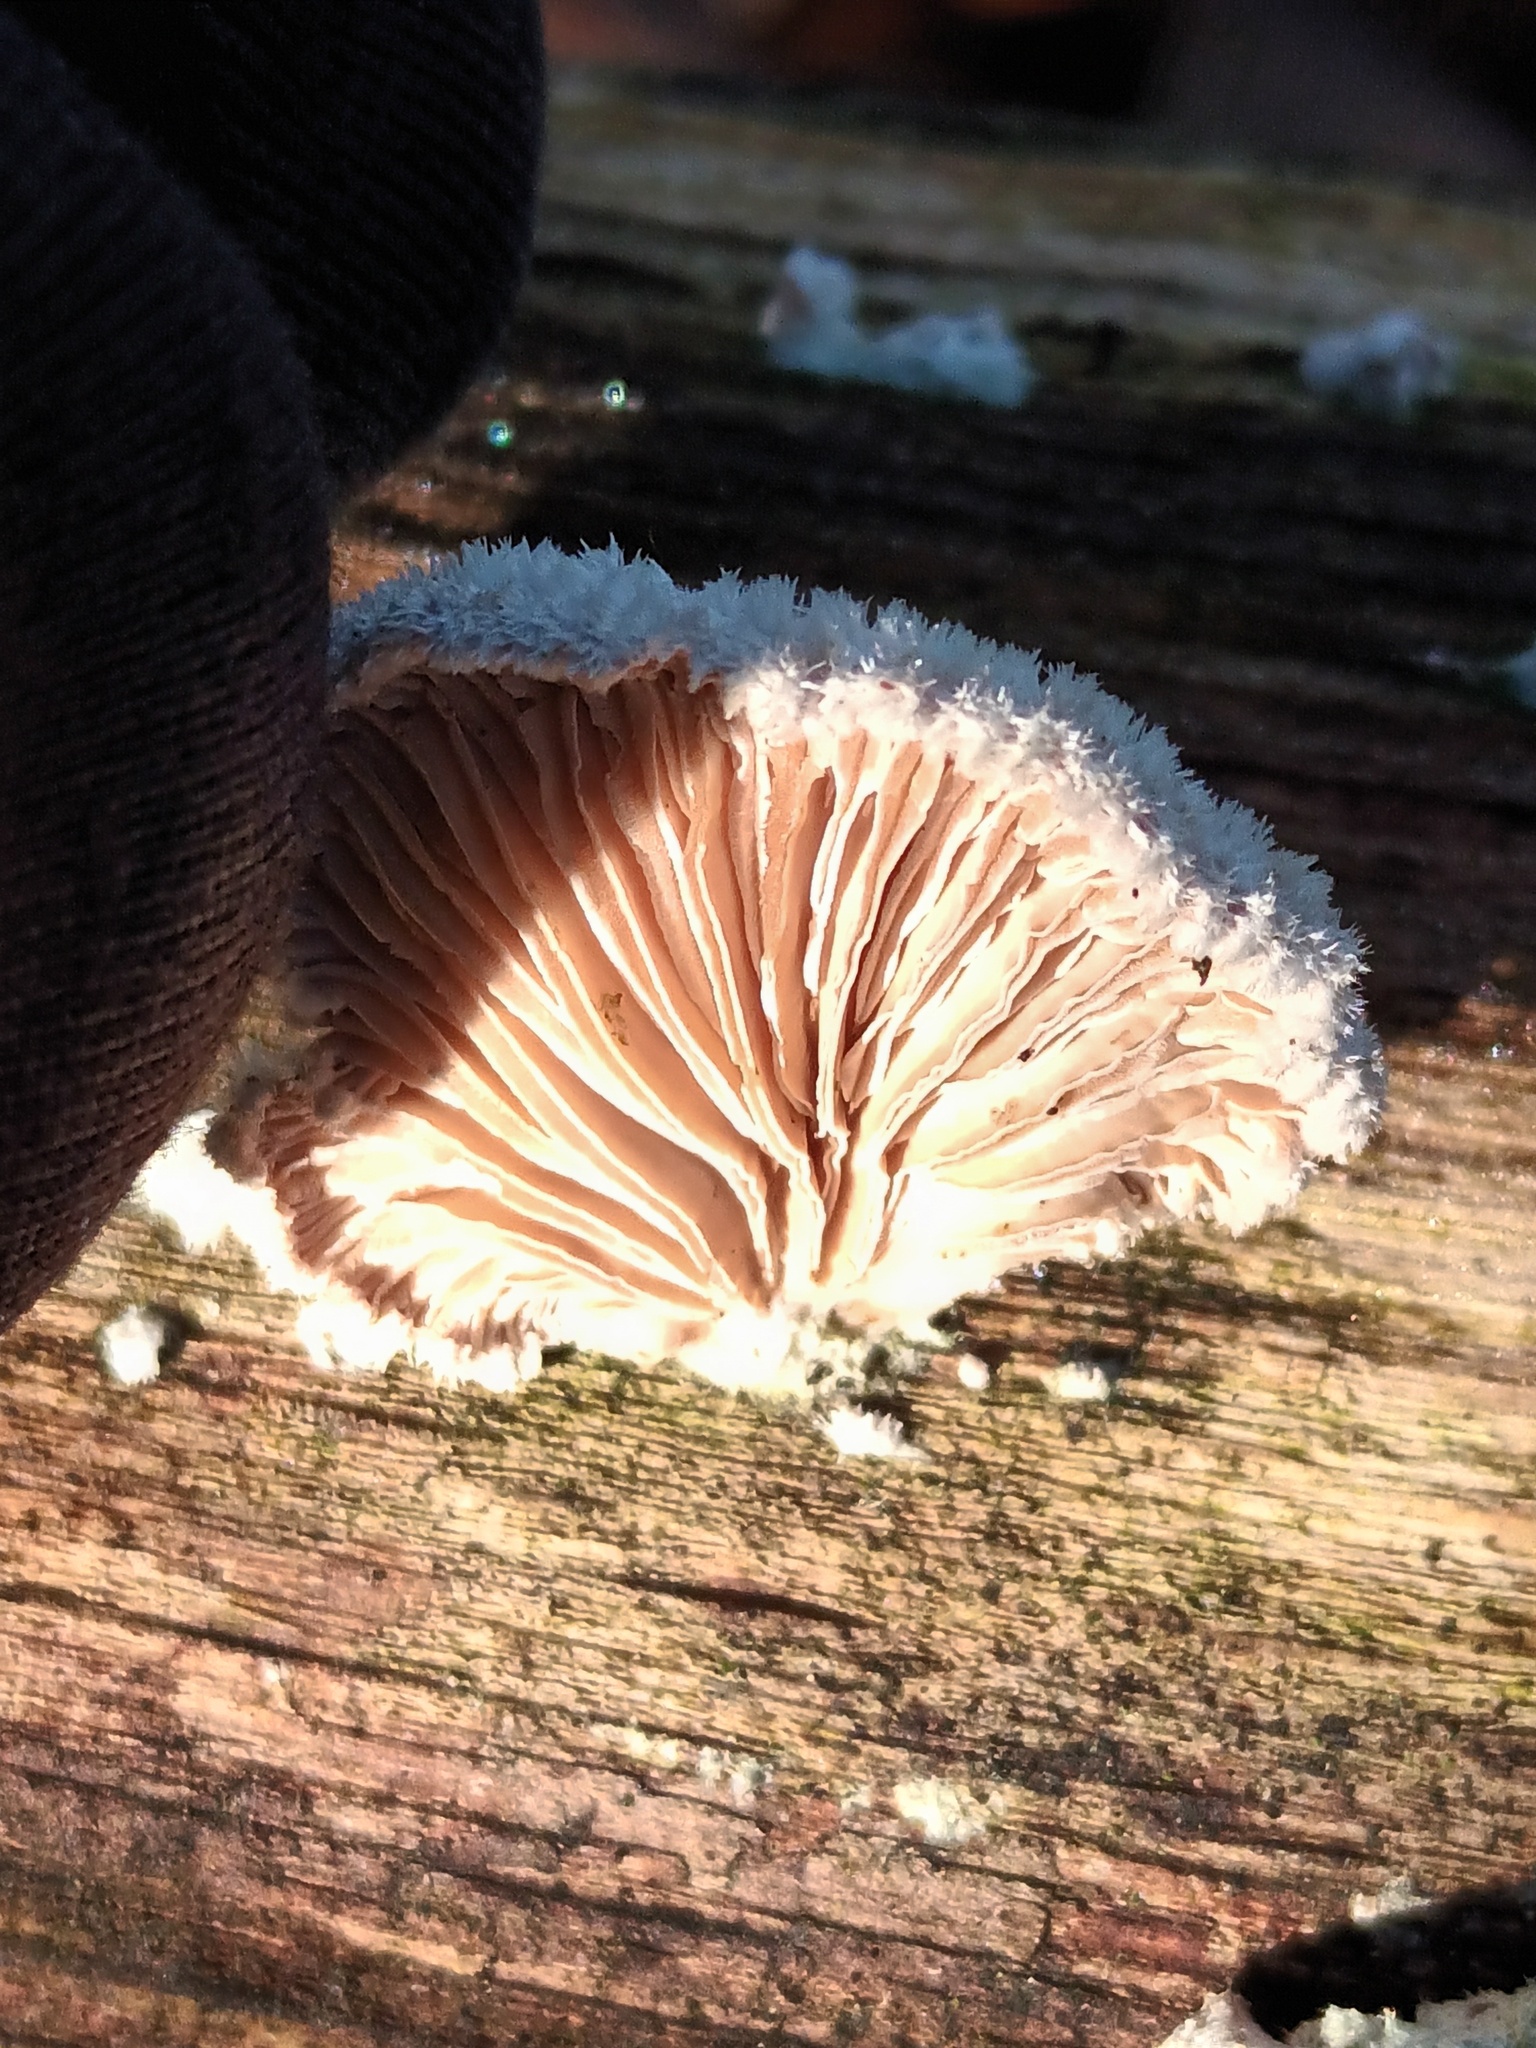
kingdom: Fungi
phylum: Basidiomycota
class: Agaricomycetes
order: Agaricales
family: Schizophyllaceae
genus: Schizophyllum
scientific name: Schizophyllum commune
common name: Common porecrust
